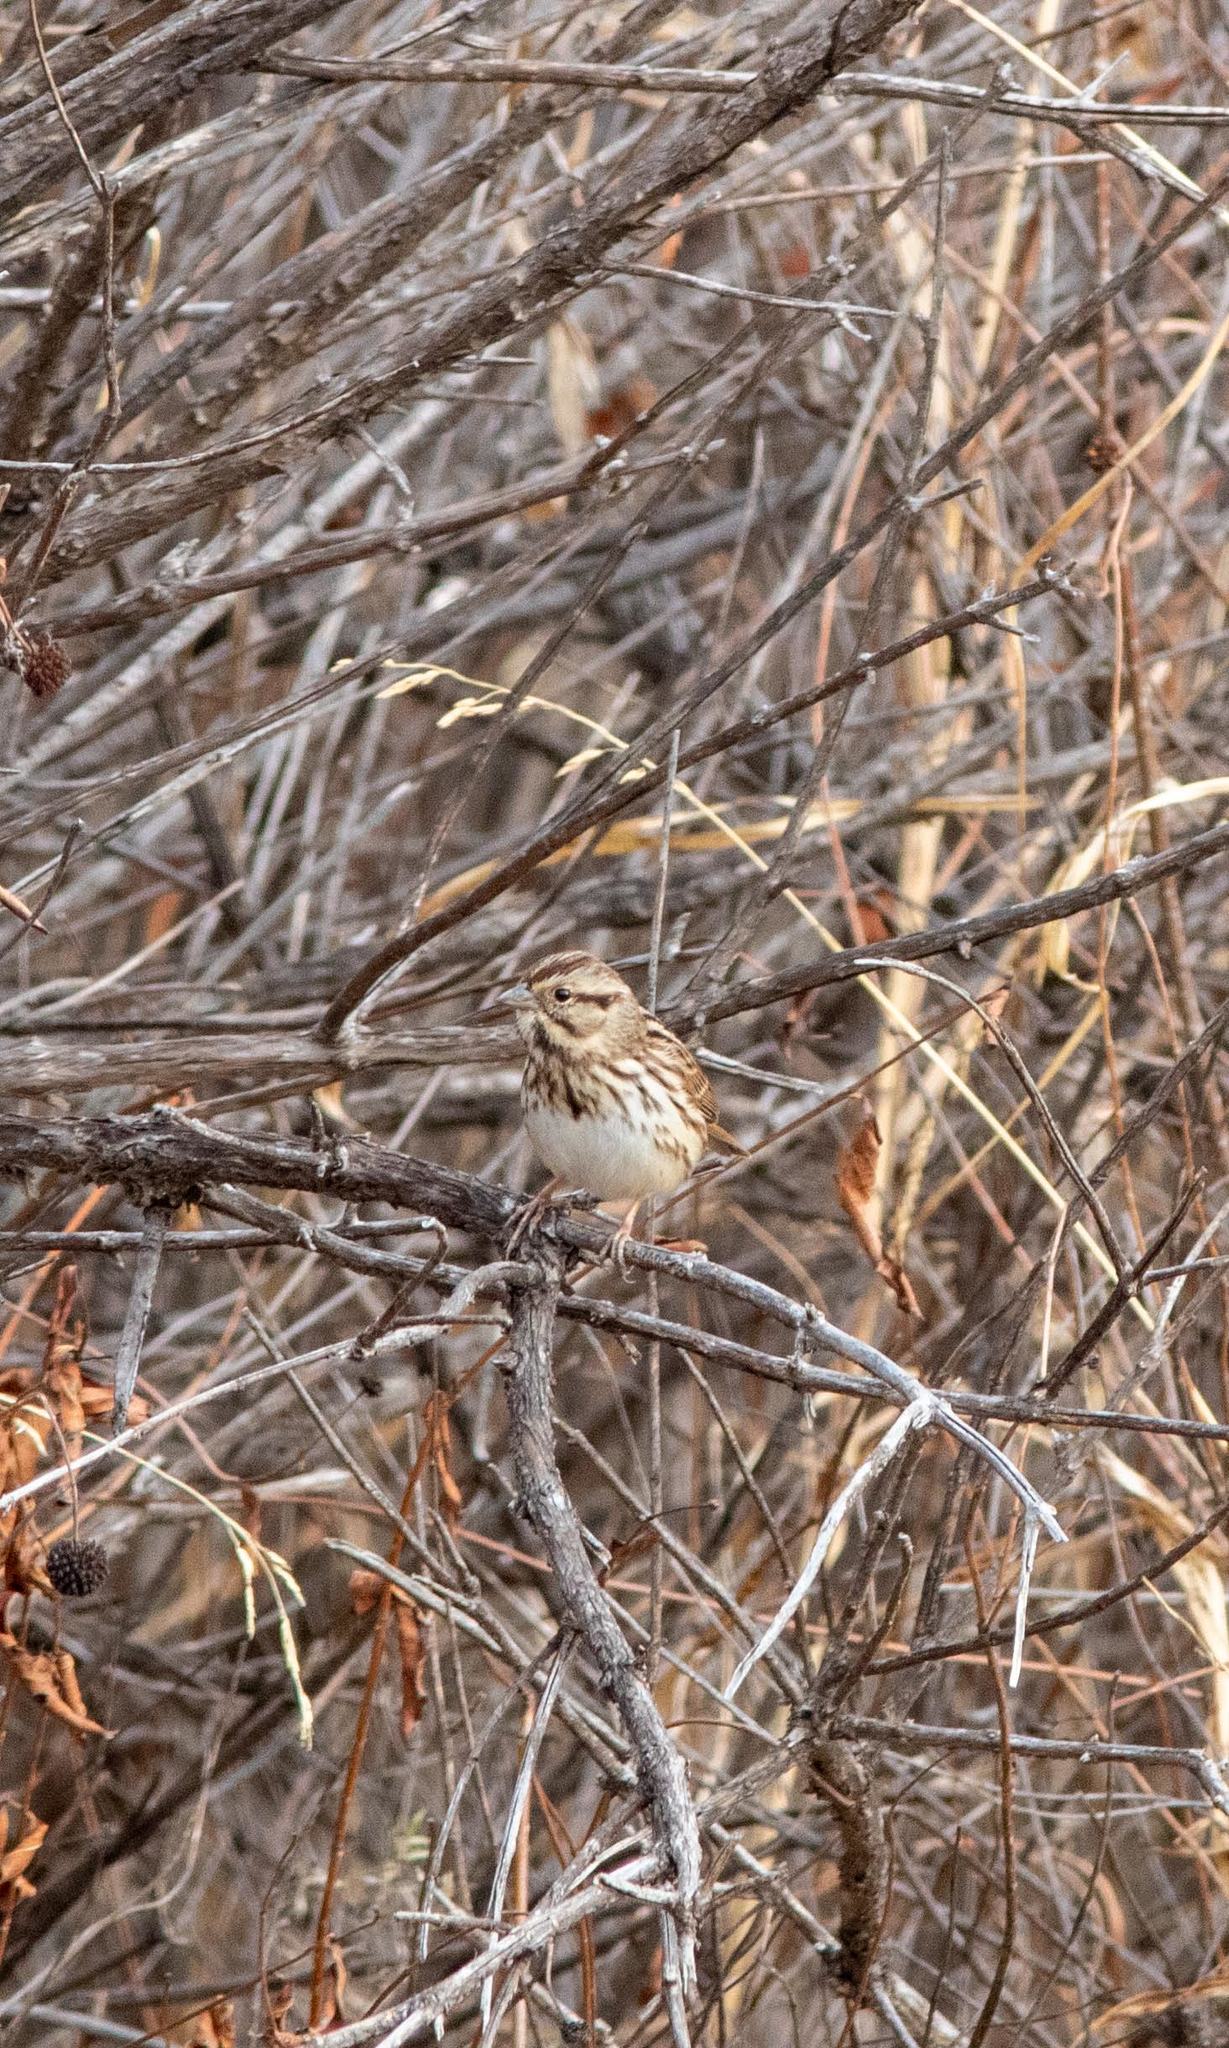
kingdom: Animalia
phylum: Chordata
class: Aves
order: Passeriformes
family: Passerellidae
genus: Melospiza
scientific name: Melospiza melodia
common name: Song sparrow
